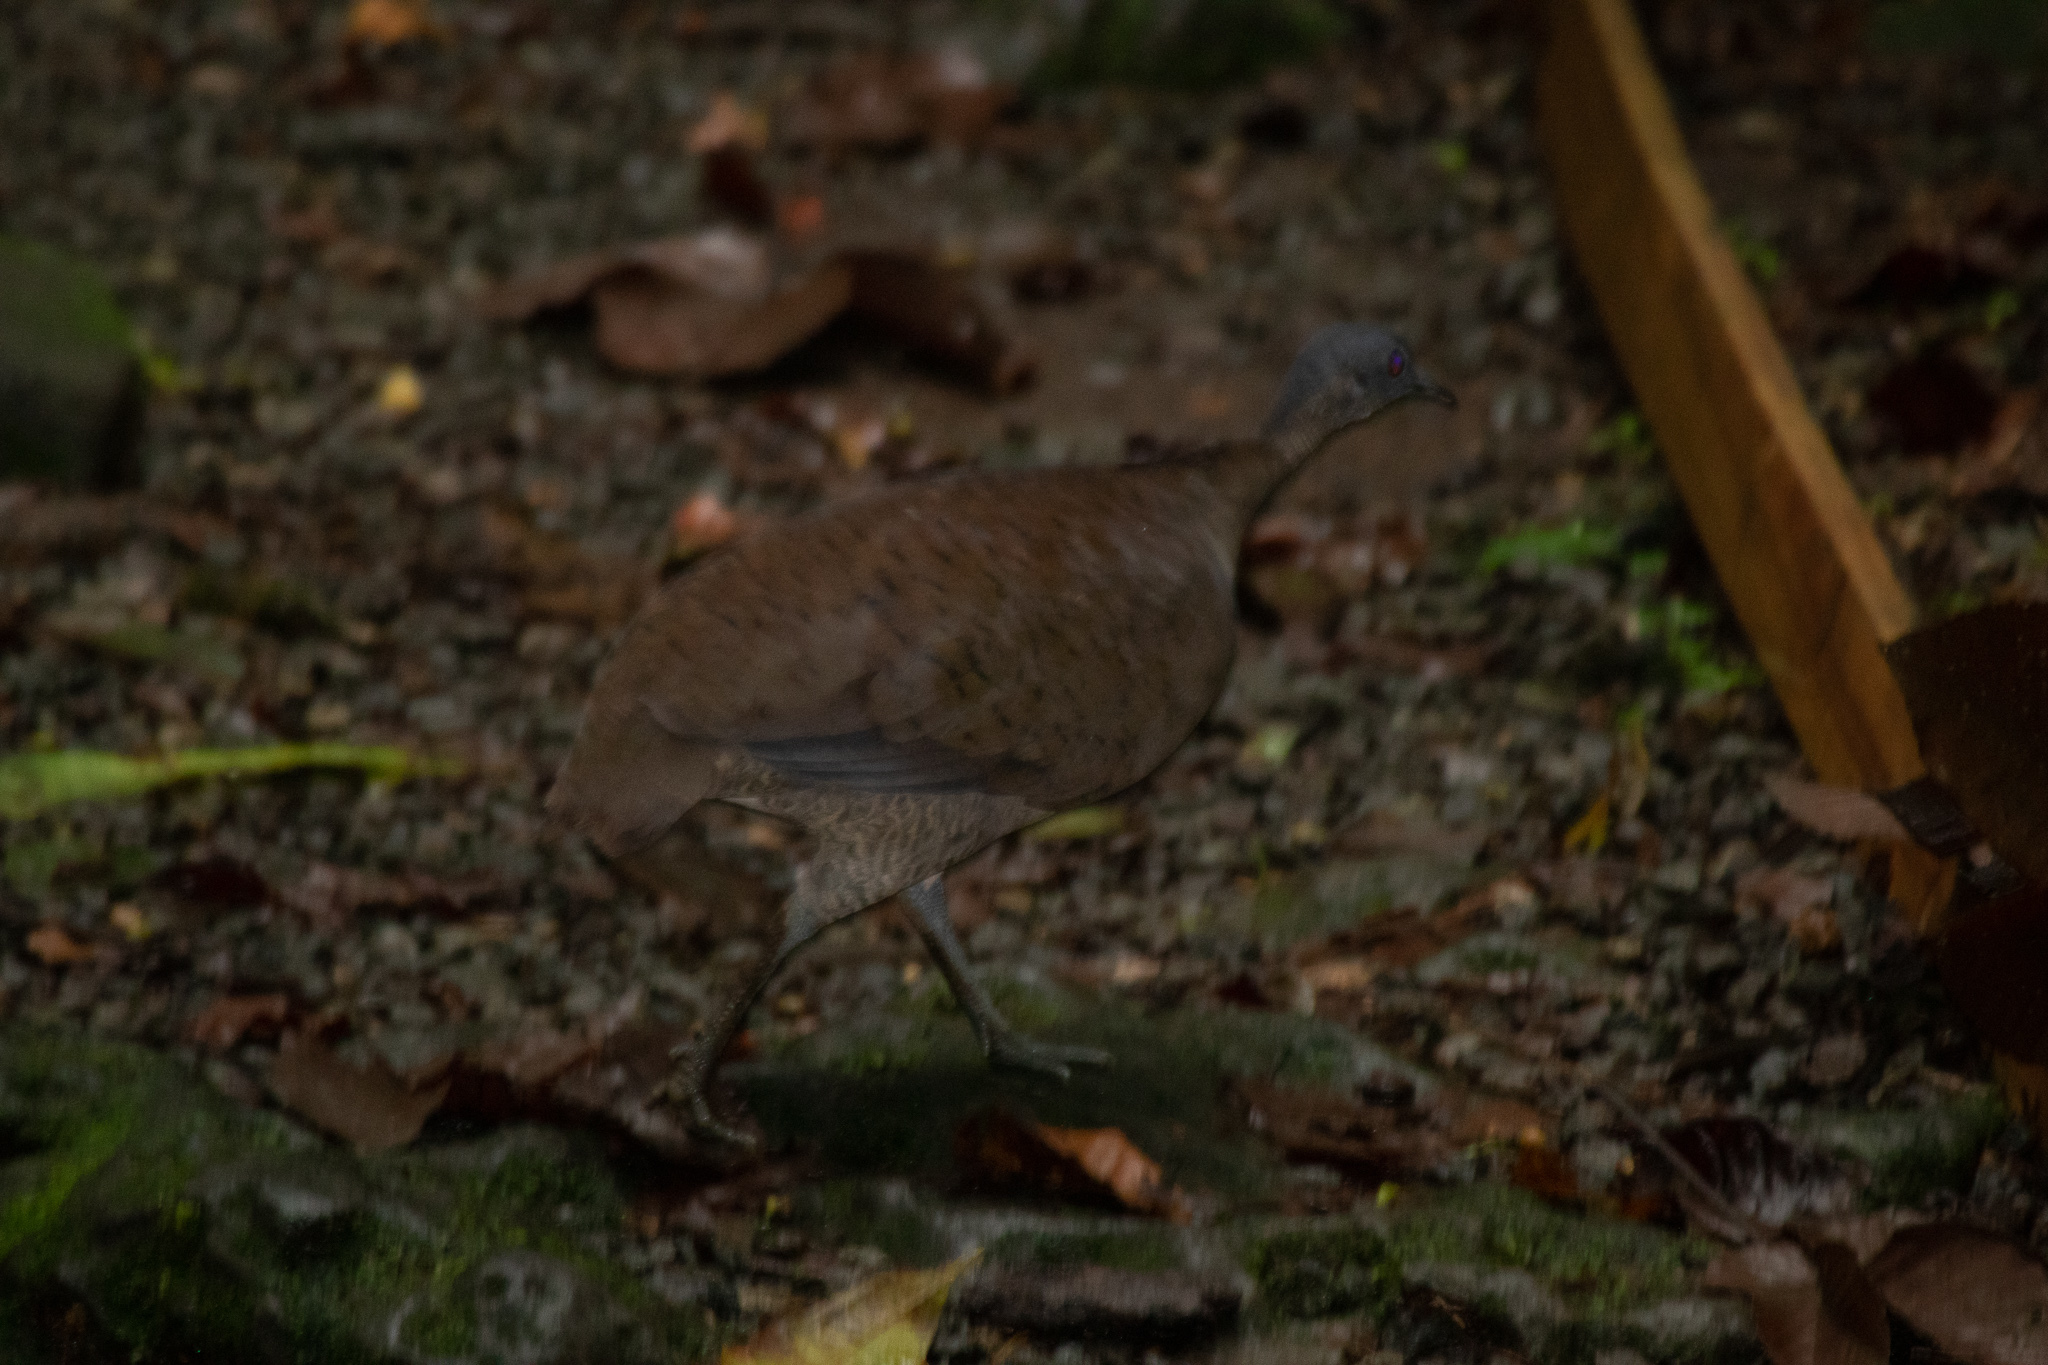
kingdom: Animalia
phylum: Chordata
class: Aves
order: Tinamiformes
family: Tinamidae
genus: Tinamus
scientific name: Tinamus major
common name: Great tinamou
